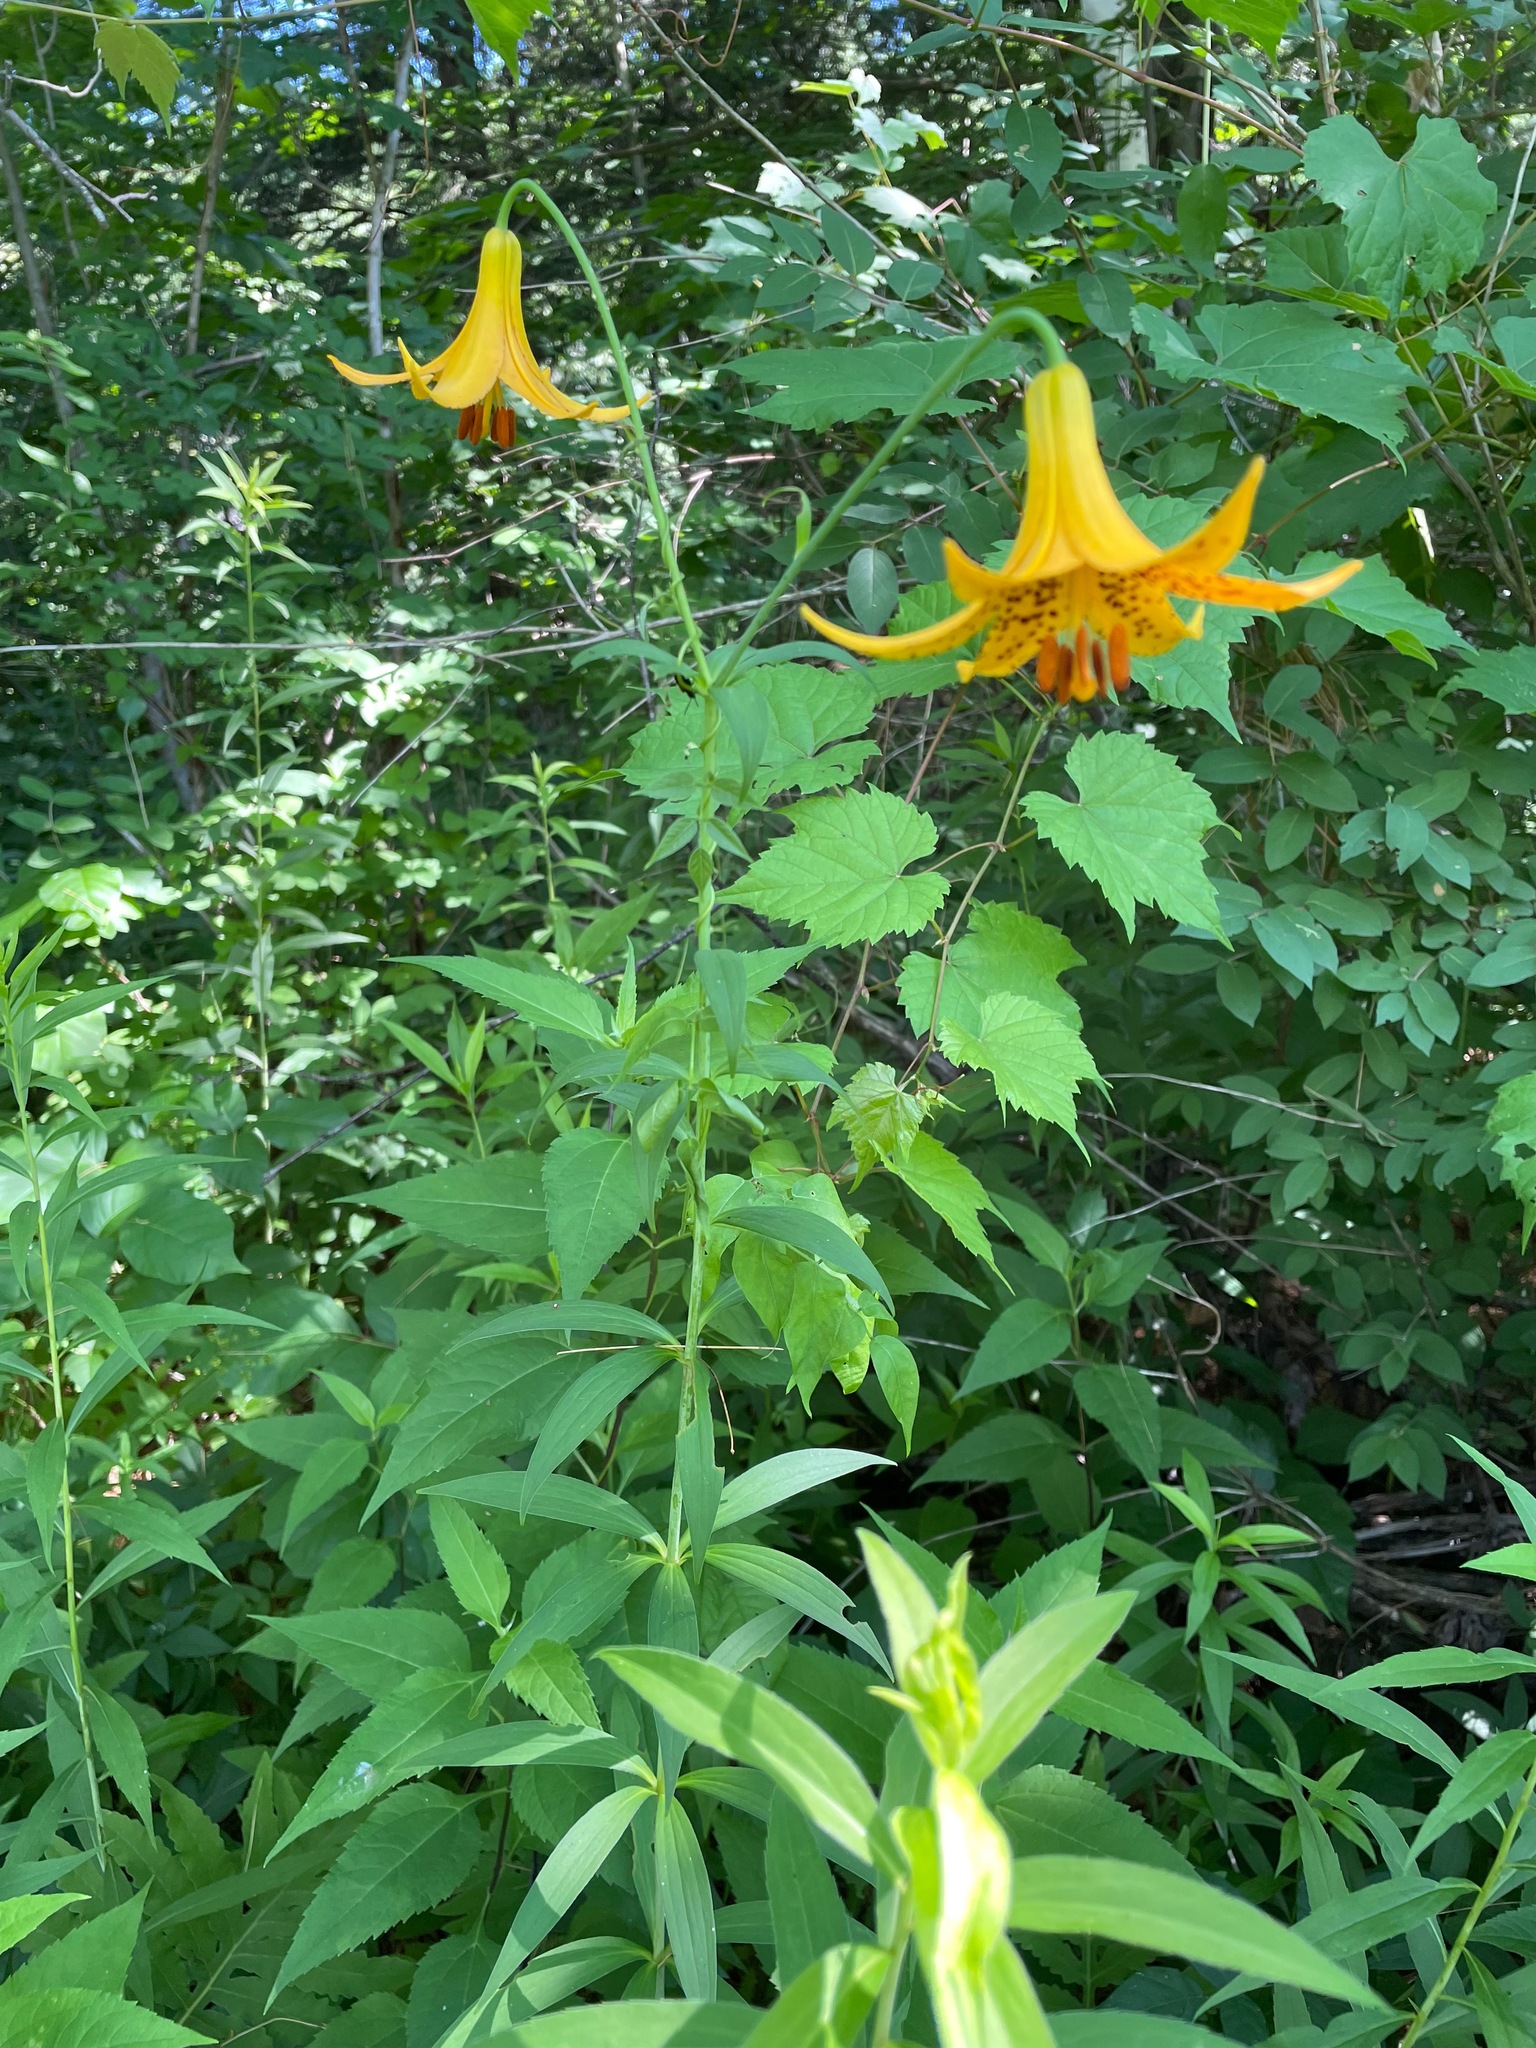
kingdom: Plantae
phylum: Tracheophyta
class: Liliopsida
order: Liliales
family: Liliaceae
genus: Lilium
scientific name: Lilium canadense
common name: Canada lily
